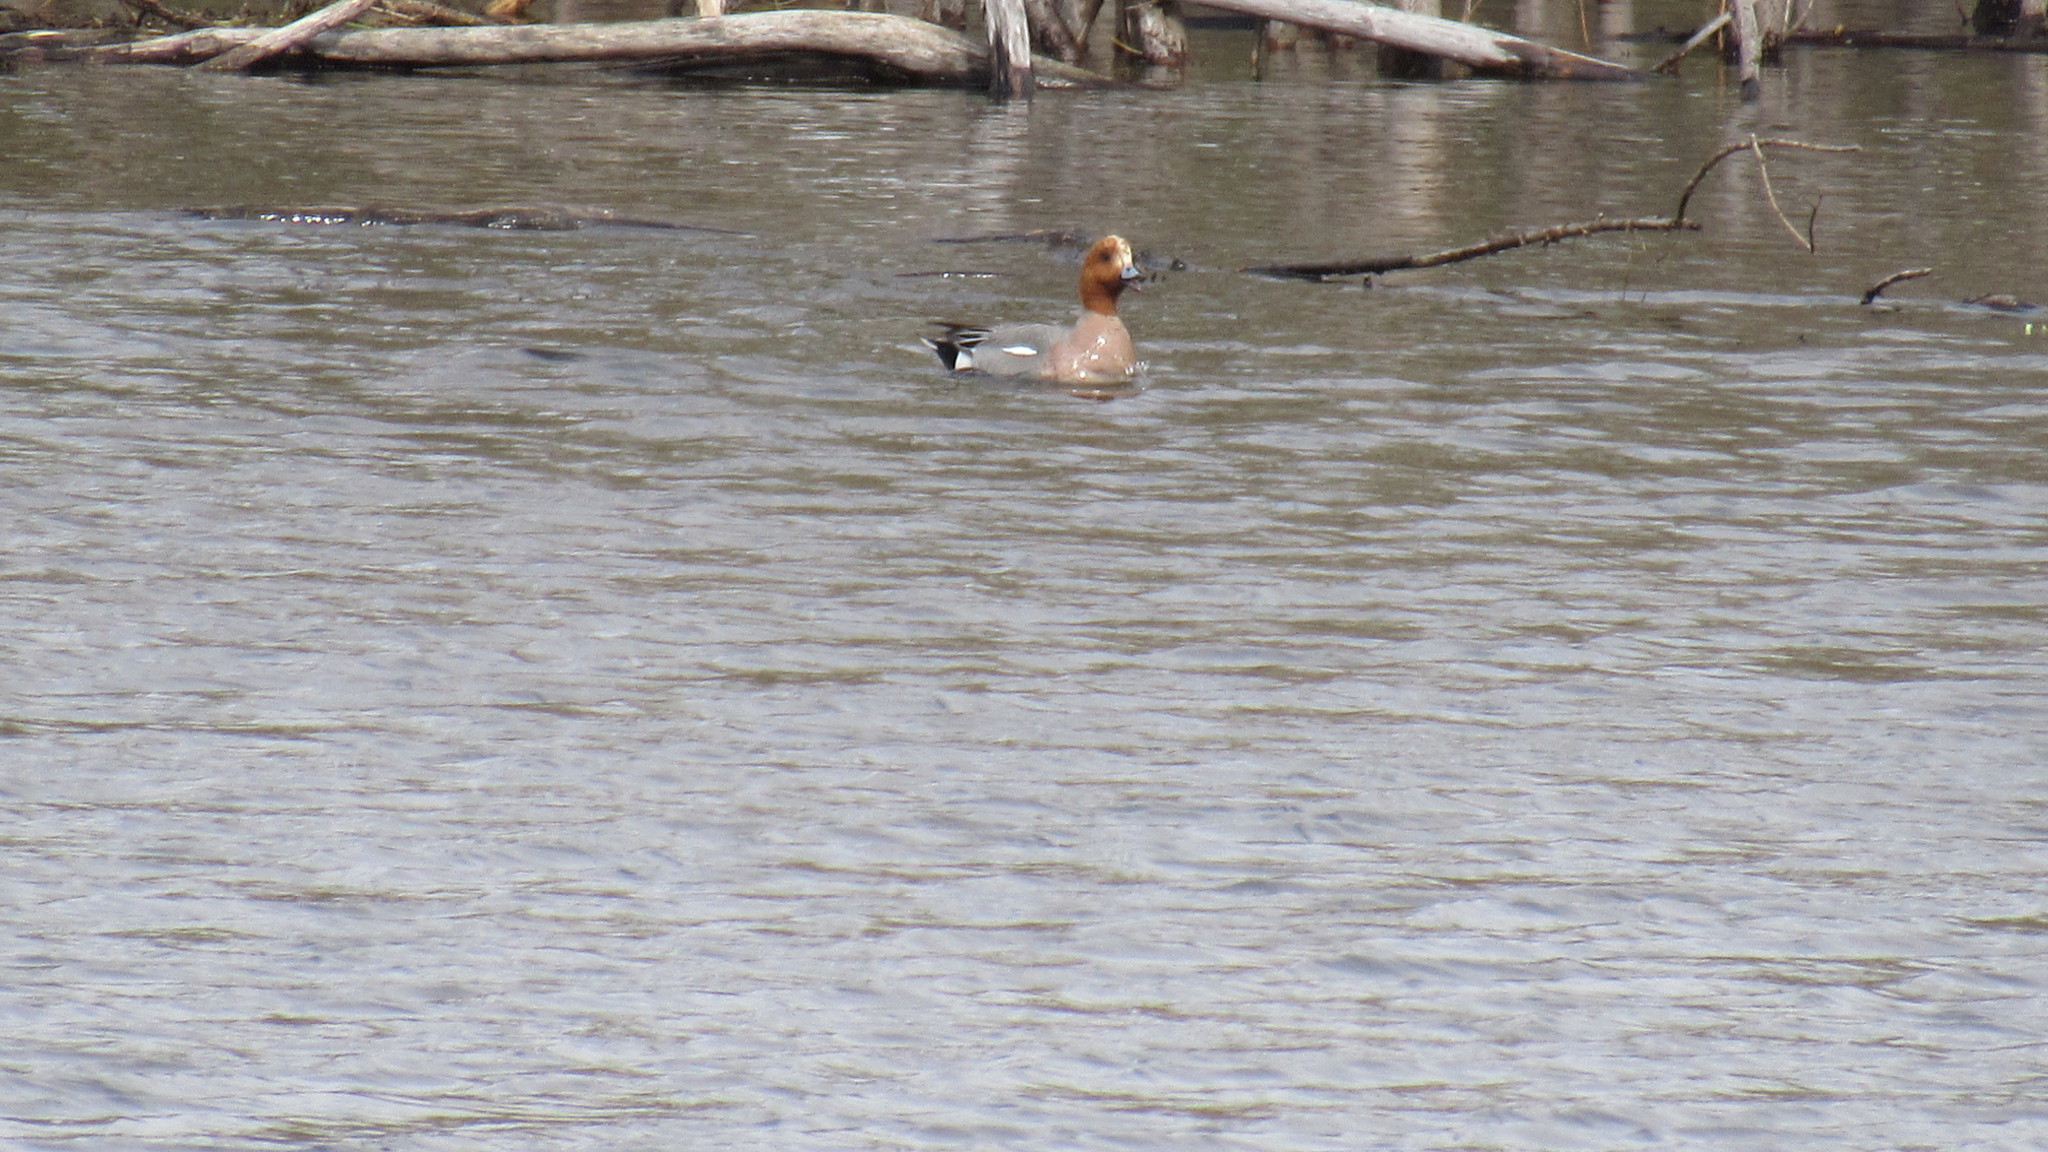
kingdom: Animalia
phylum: Chordata
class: Aves
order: Anseriformes
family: Anatidae
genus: Mareca
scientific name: Mareca penelope
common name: Eurasian wigeon
